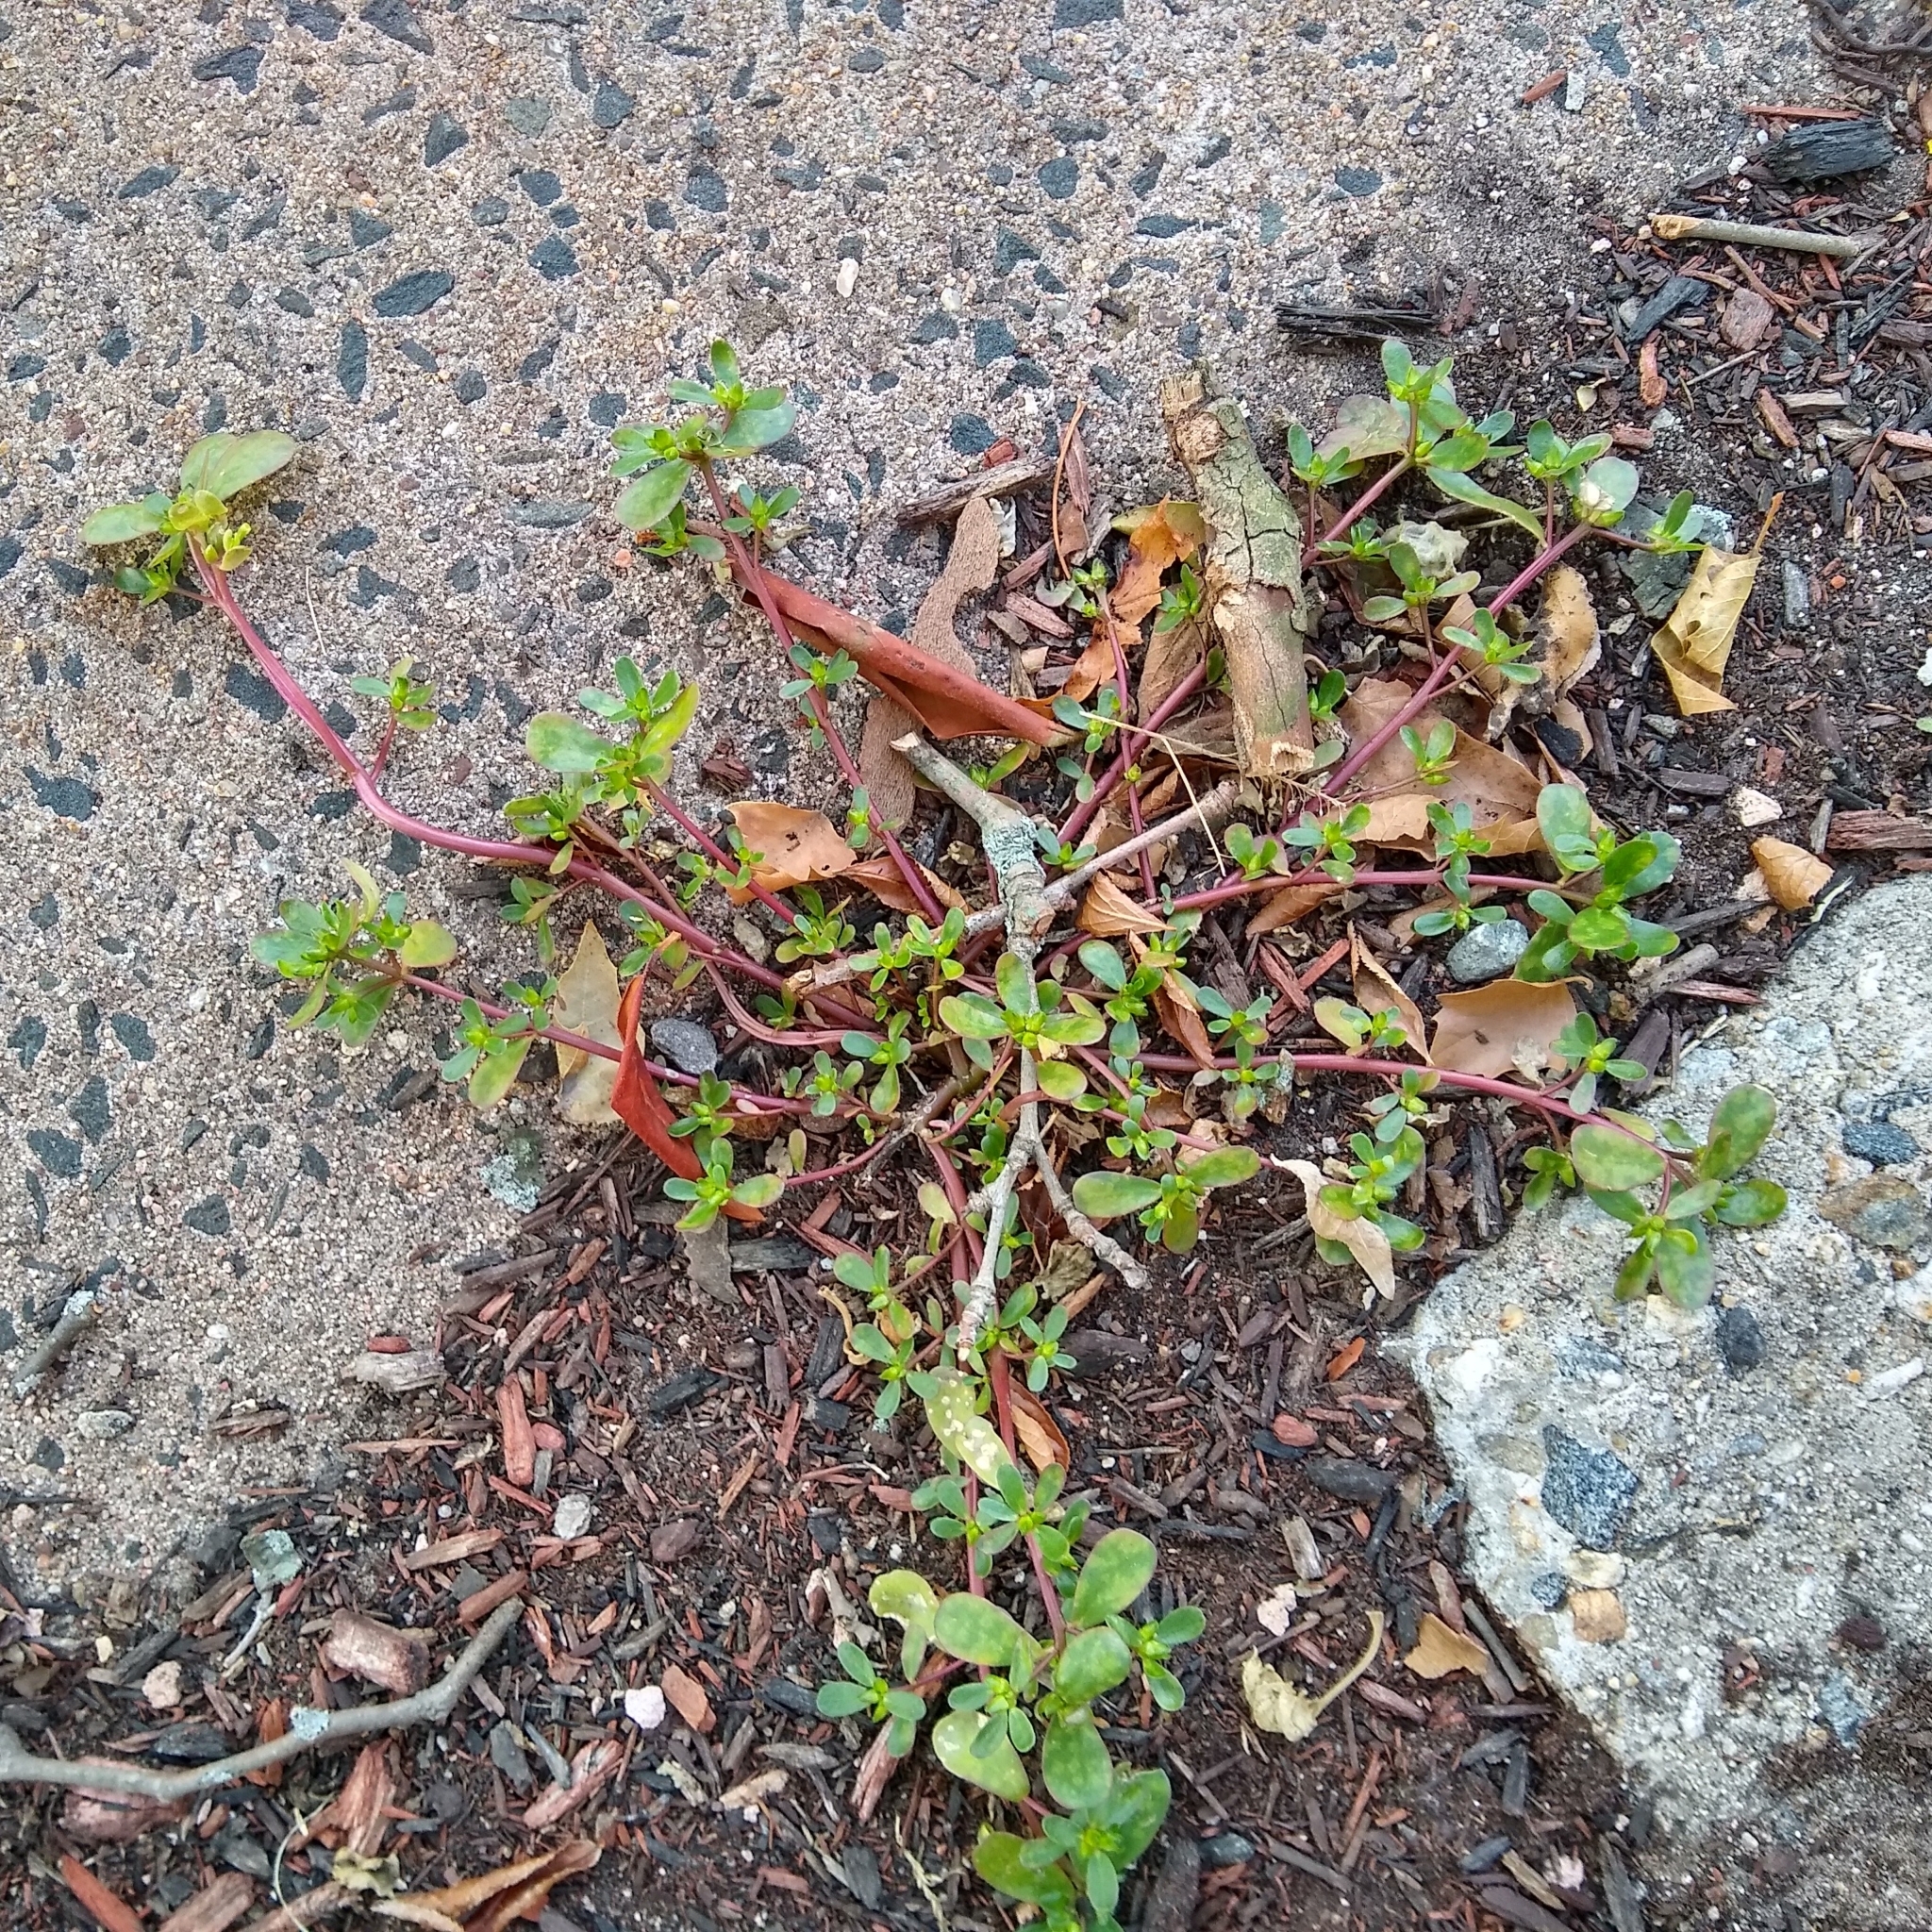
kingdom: Plantae
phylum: Tracheophyta
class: Magnoliopsida
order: Caryophyllales
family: Portulacaceae
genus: Portulaca
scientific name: Portulaca oleracea
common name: Common purslane
